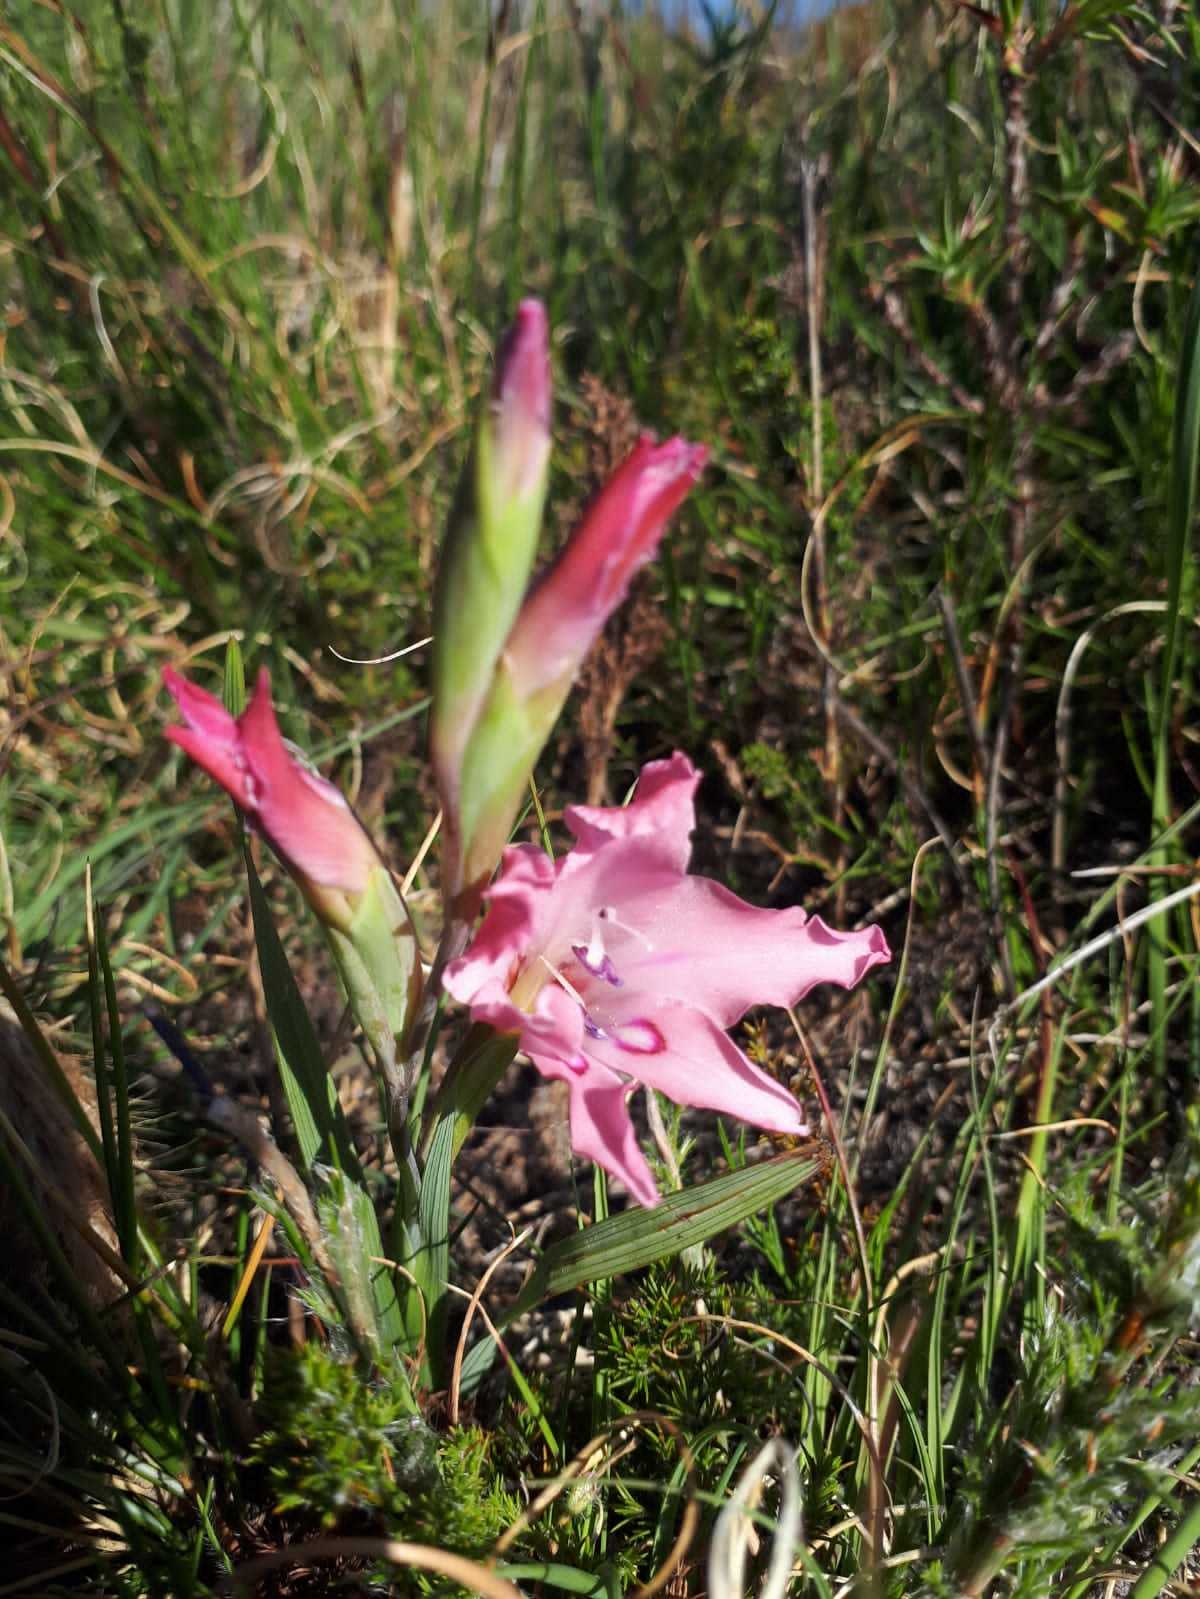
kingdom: Plantae
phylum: Tracheophyta
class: Liliopsida
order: Asparagales
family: Iridaceae
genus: Gladiolus
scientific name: Gladiolus carneus
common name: Painted-lady
